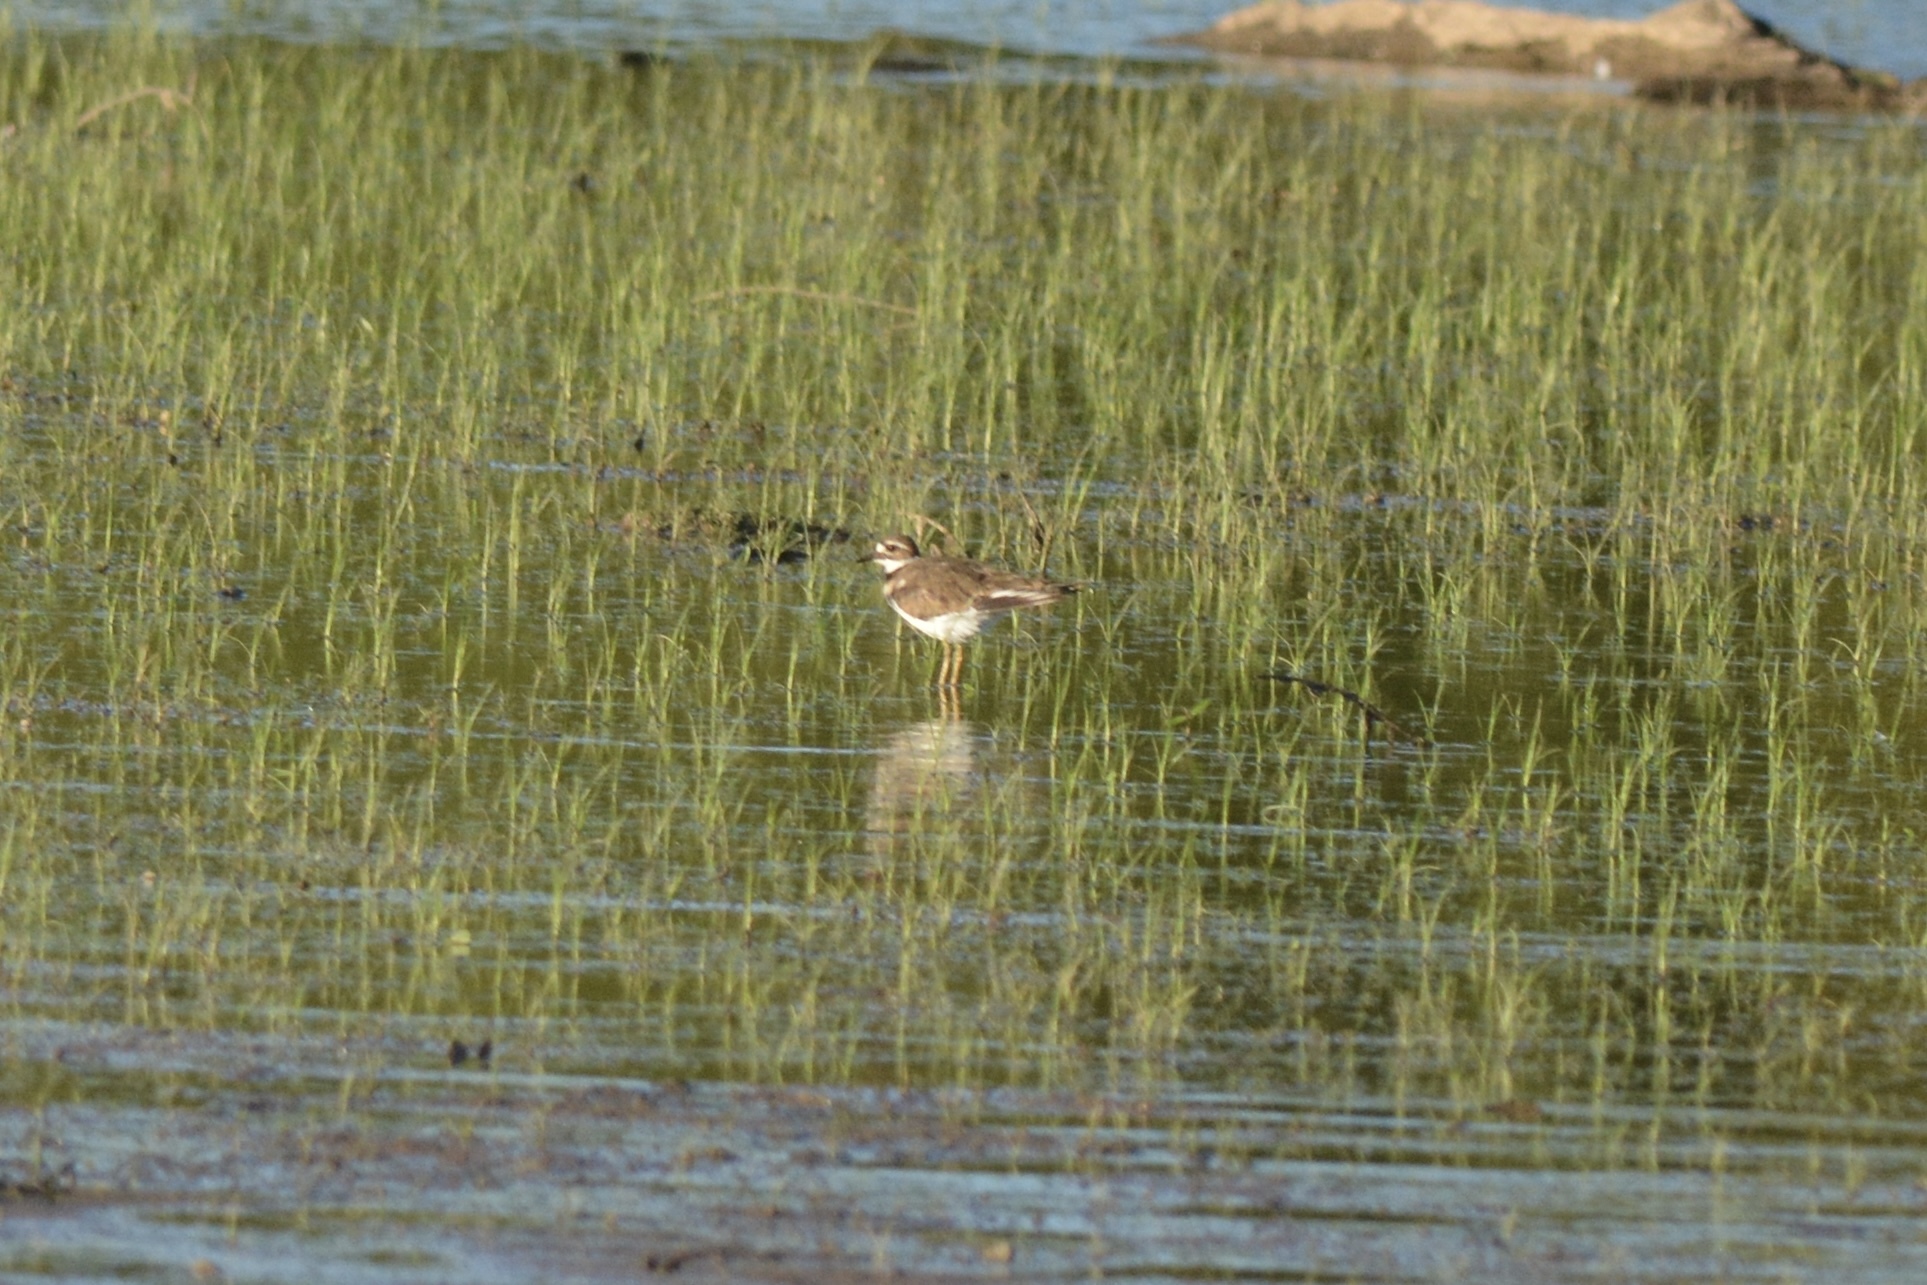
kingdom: Animalia
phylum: Chordata
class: Aves
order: Charadriiformes
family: Charadriidae
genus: Charadrius
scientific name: Charadrius vociferus
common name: Killdeer
